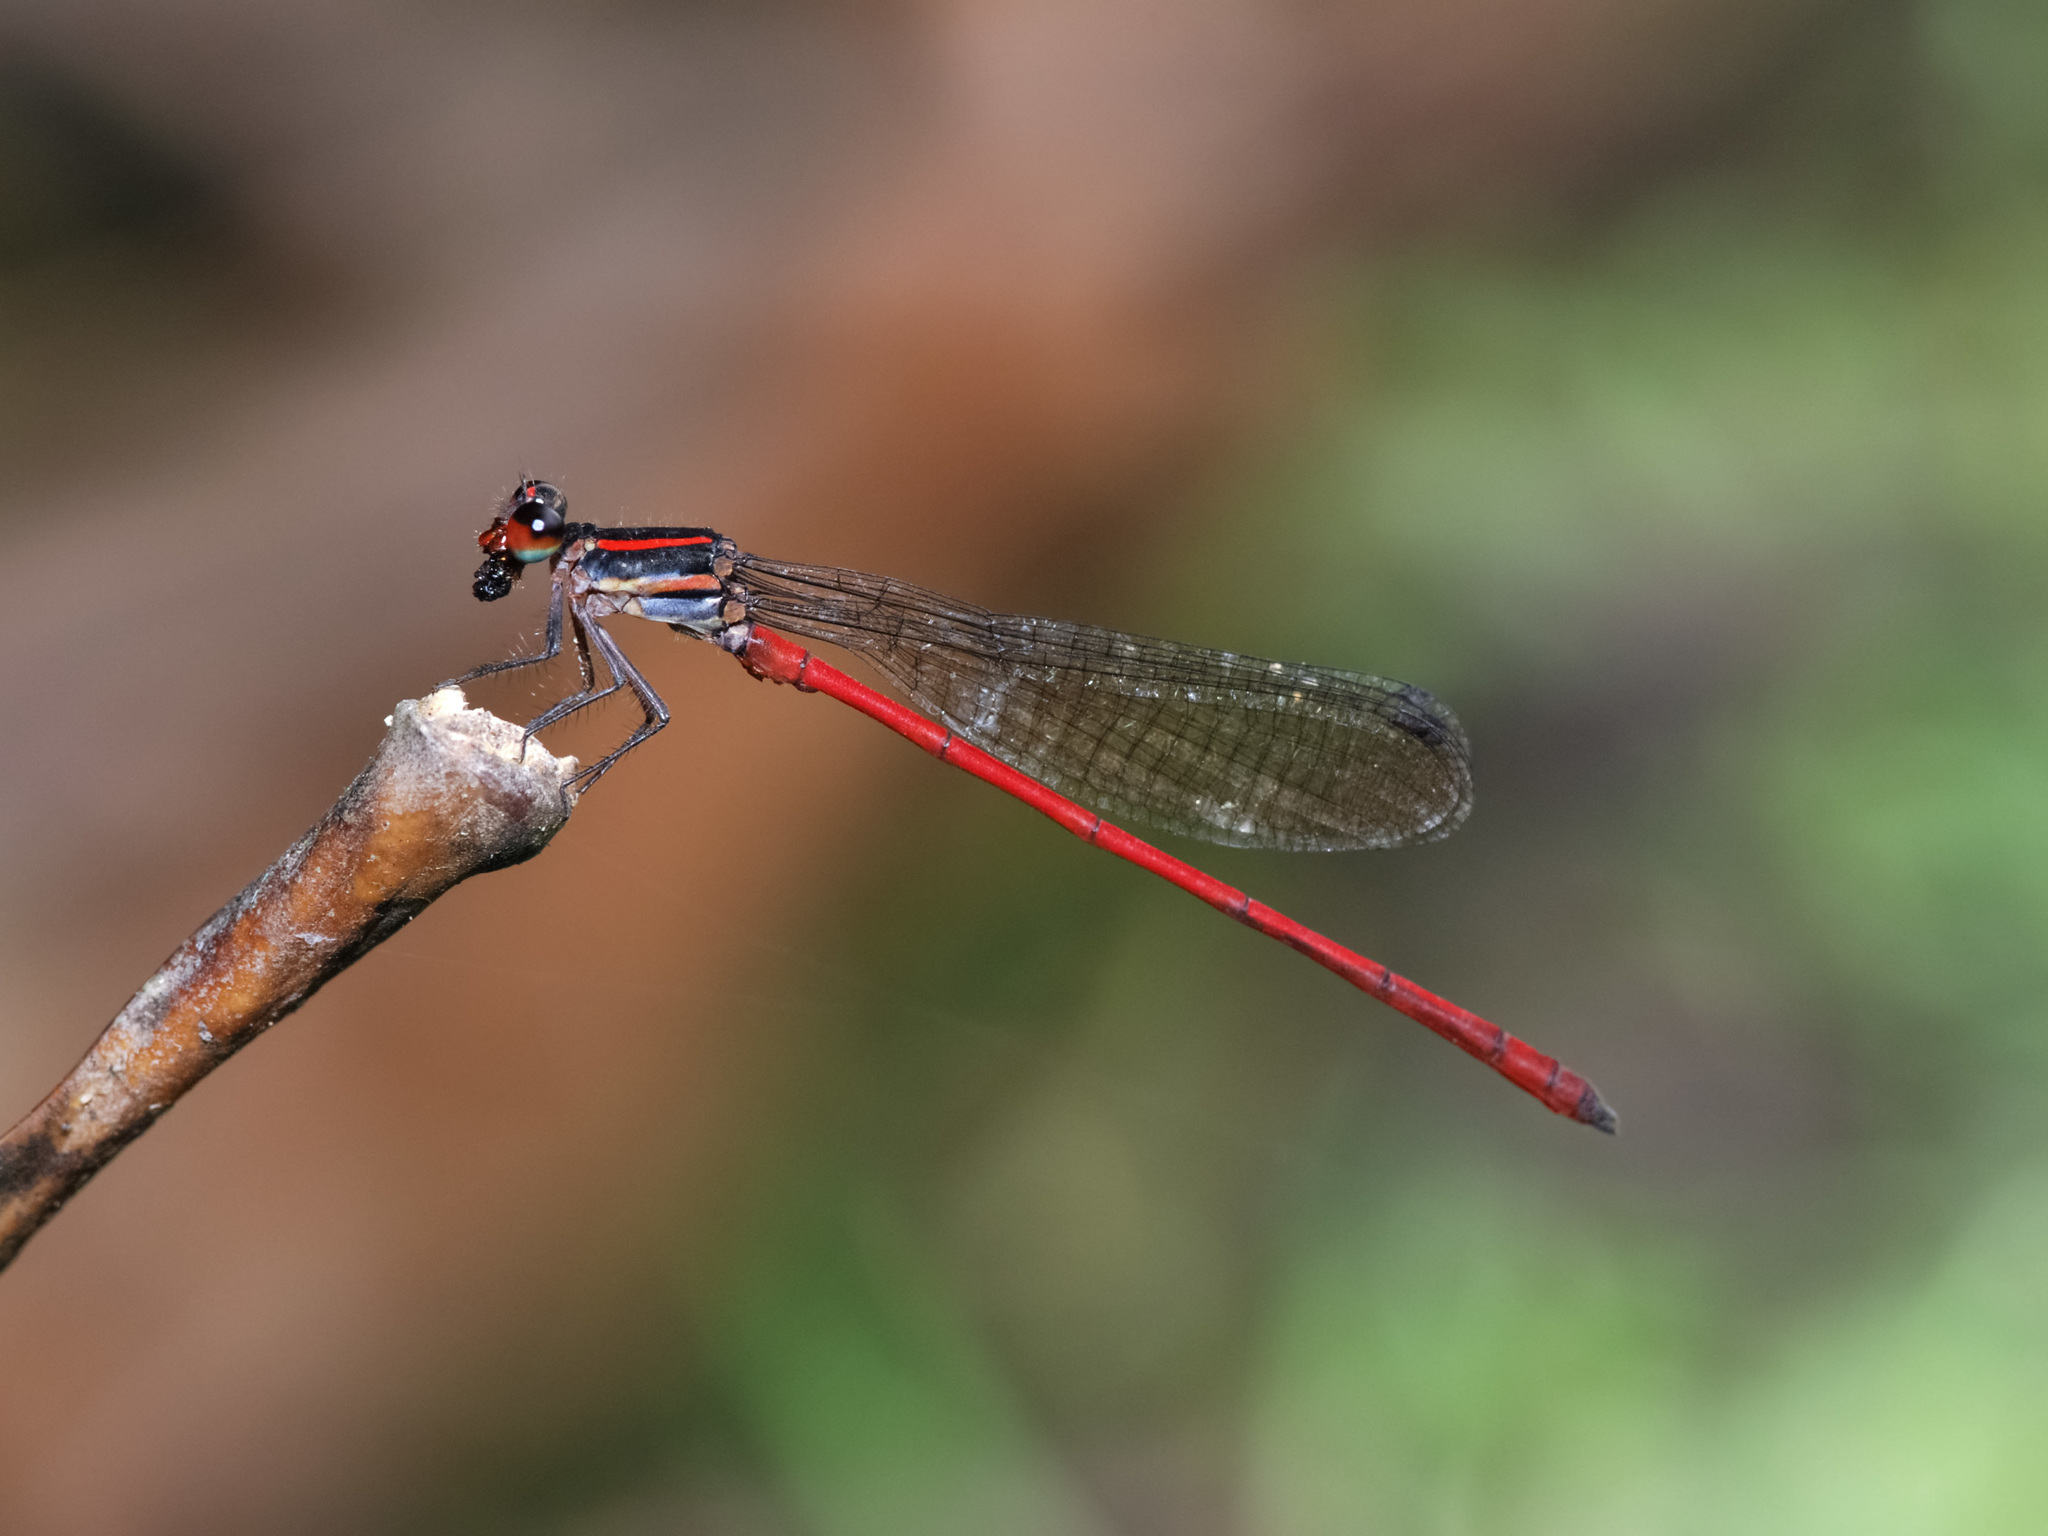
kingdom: Animalia
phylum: Arthropoda
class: Insecta
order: Odonata
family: Platycnemididae
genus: Calicnemia
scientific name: Calicnemia chaseni
